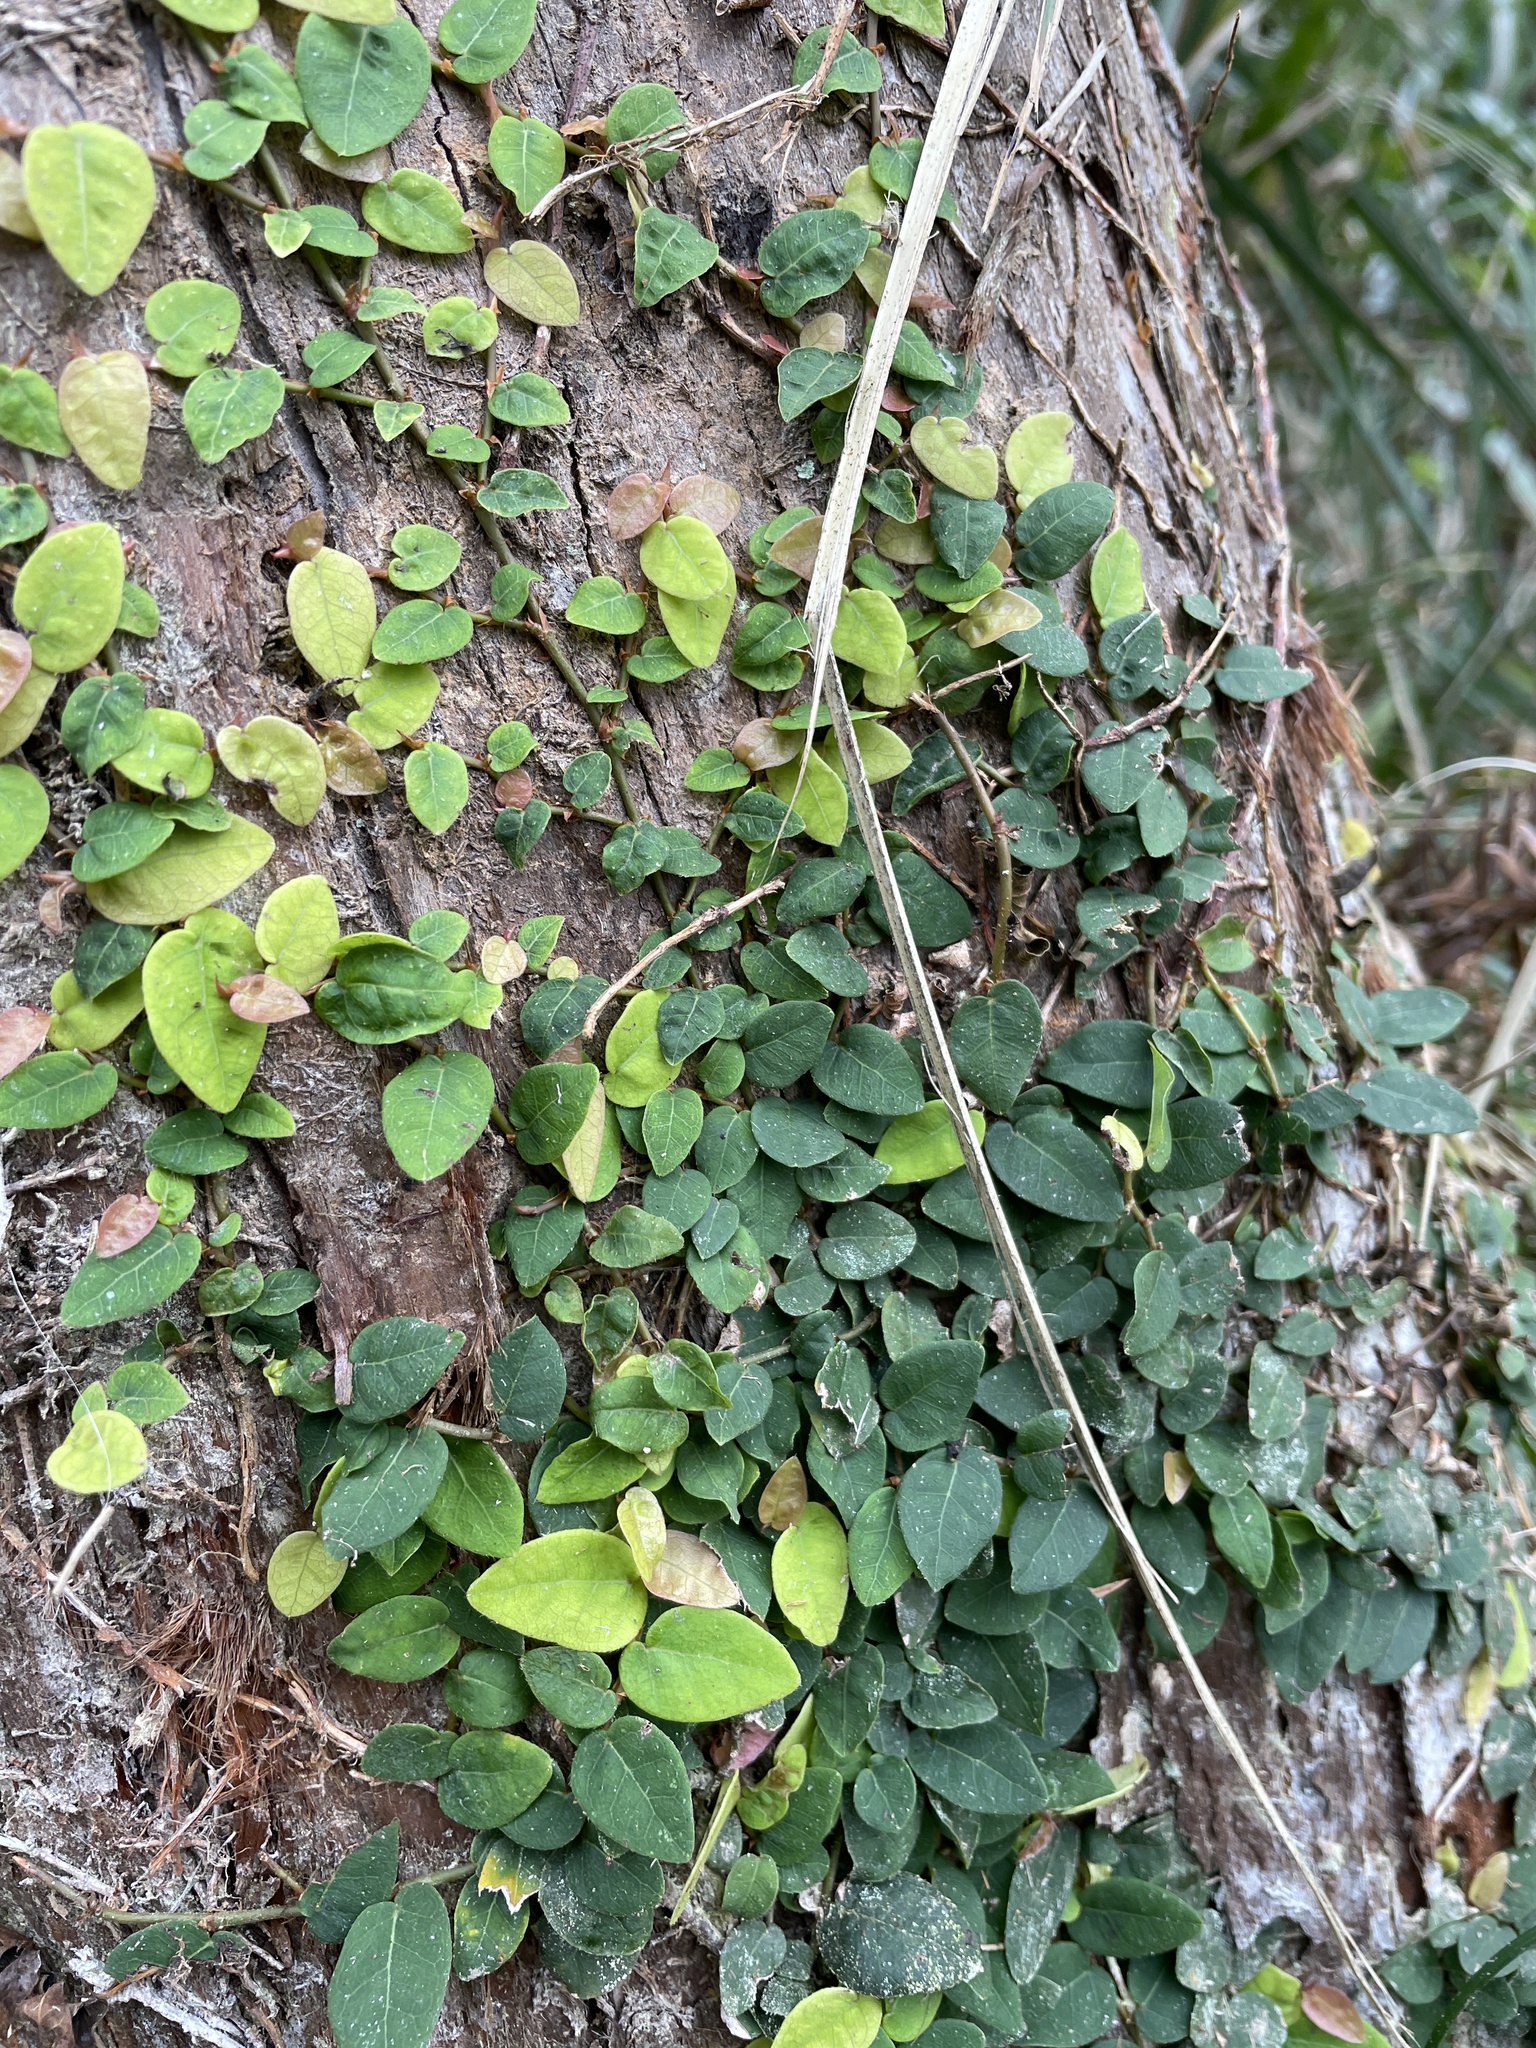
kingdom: Plantae
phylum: Tracheophyta
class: Magnoliopsida
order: Rosales
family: Moraceae
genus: Ficus
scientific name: Ficus pumila
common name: Climbingfig
